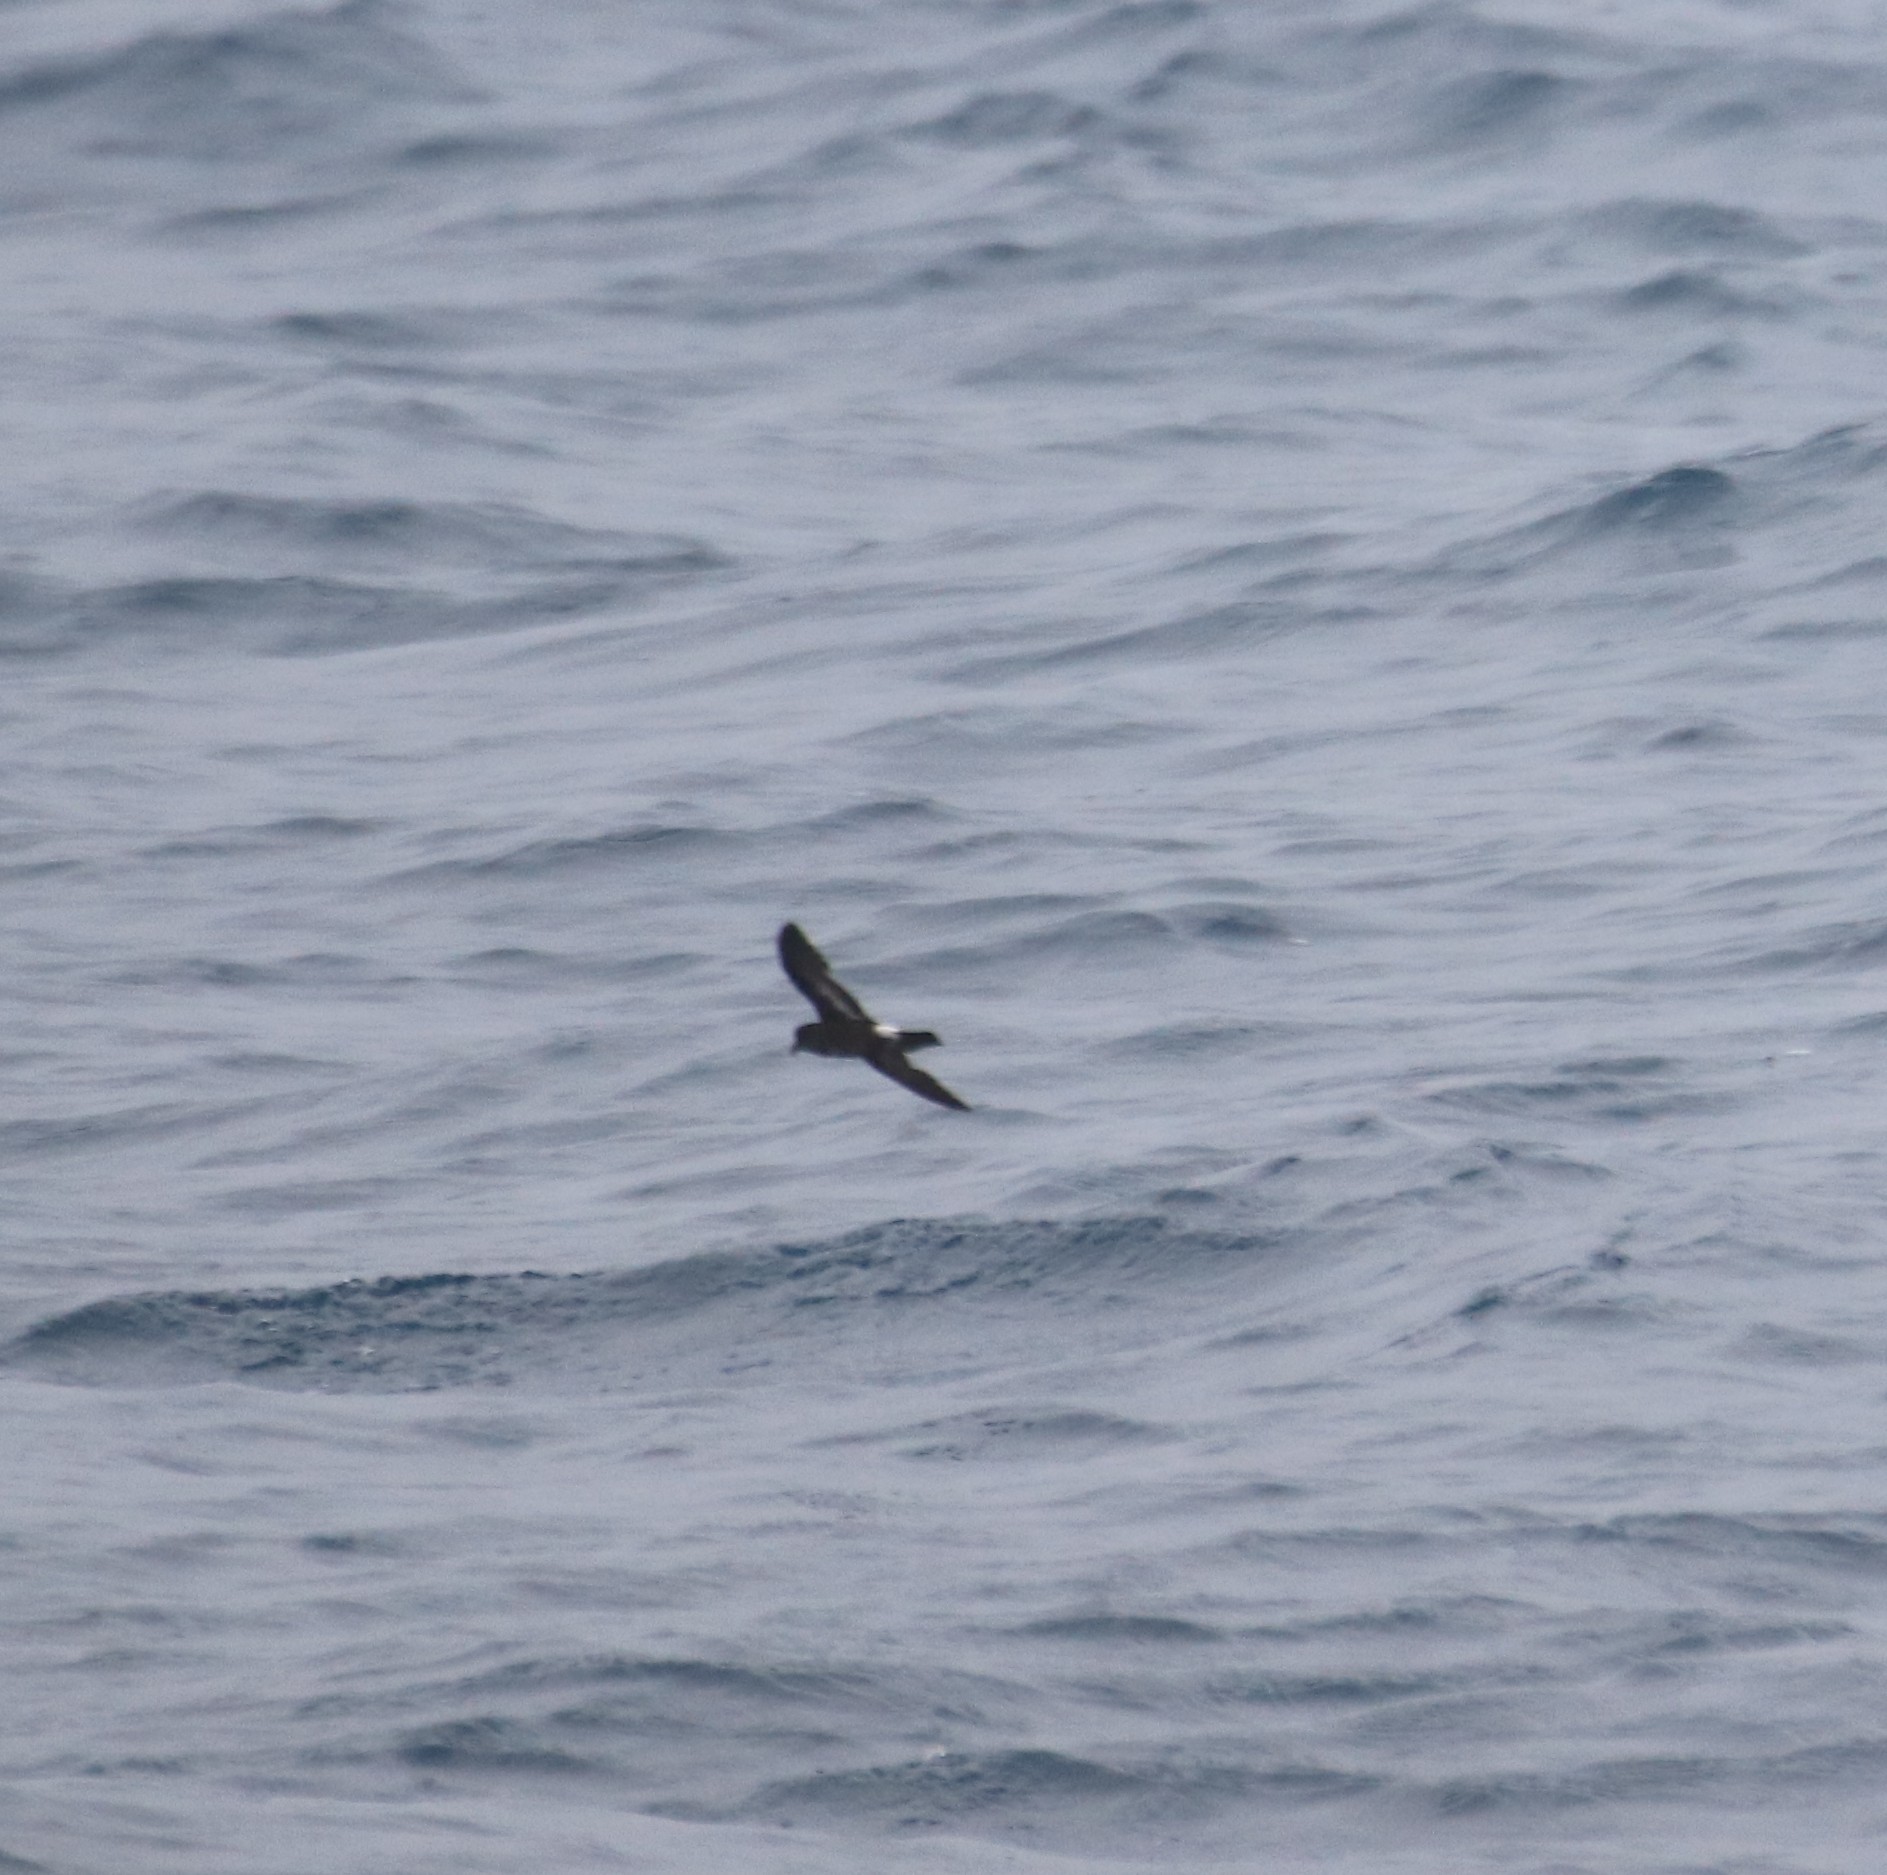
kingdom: Animalia
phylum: Chordata
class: Aves
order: Procellariiformes
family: Hydrobatidae
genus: Hydrobates
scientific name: Hydrobates pelagicus
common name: European storm-petrel
